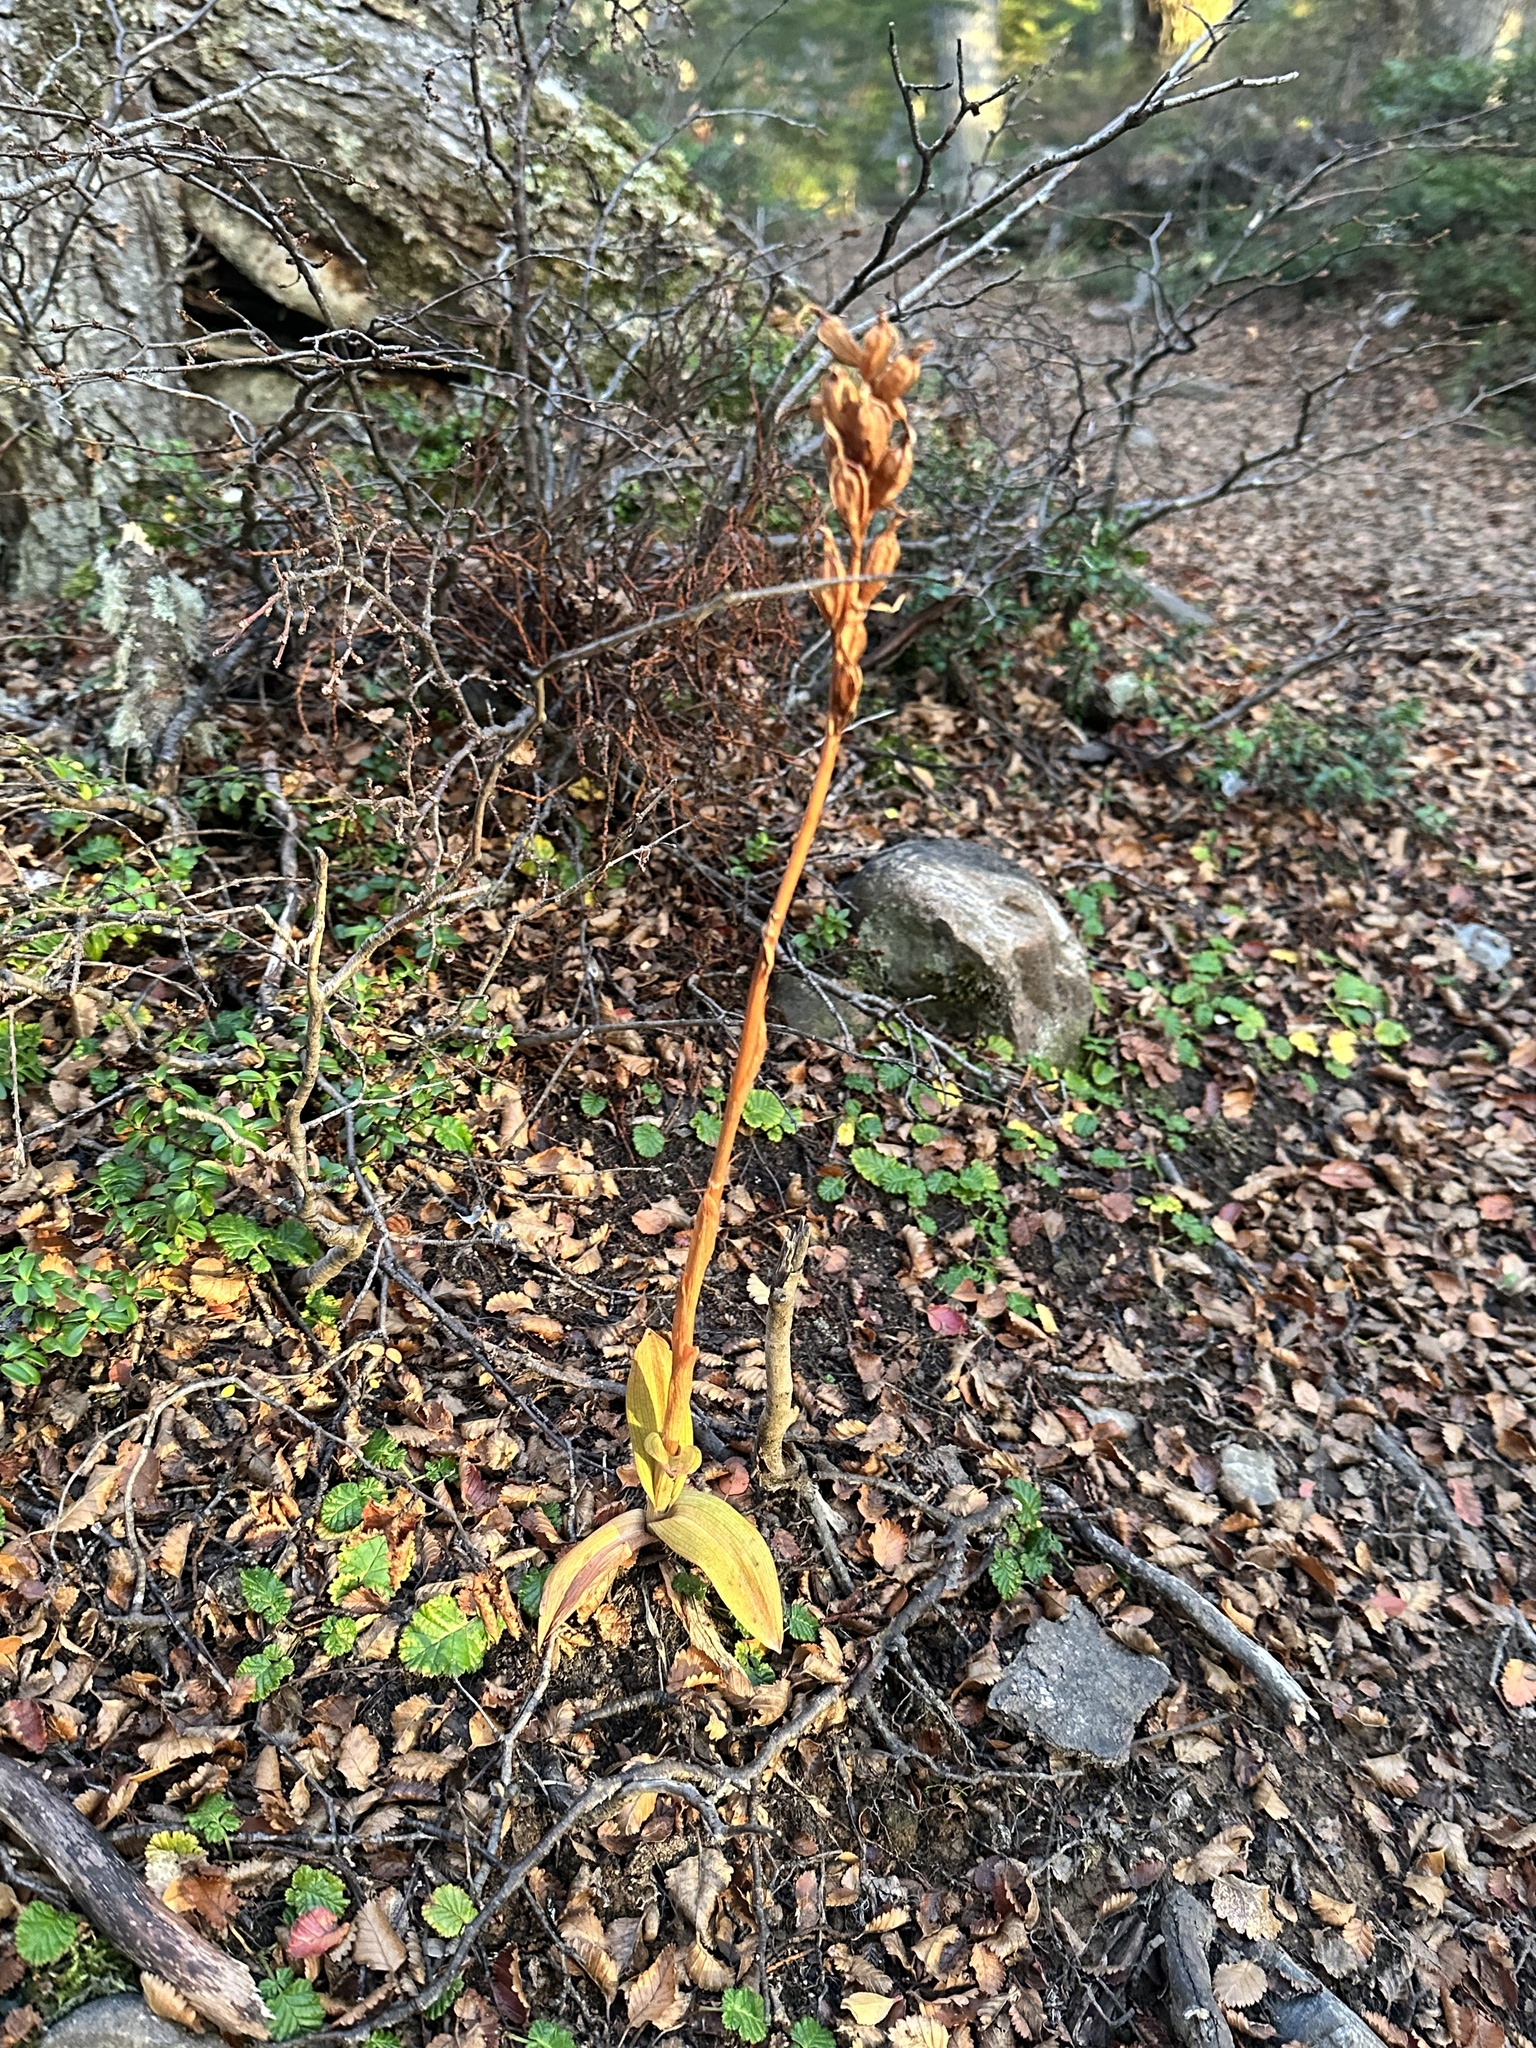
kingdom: Plantae
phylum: Tracheophyta
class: Liliopsida
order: Asparagales
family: Orchidaceae
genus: Gavilea
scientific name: Gavilea lutea
